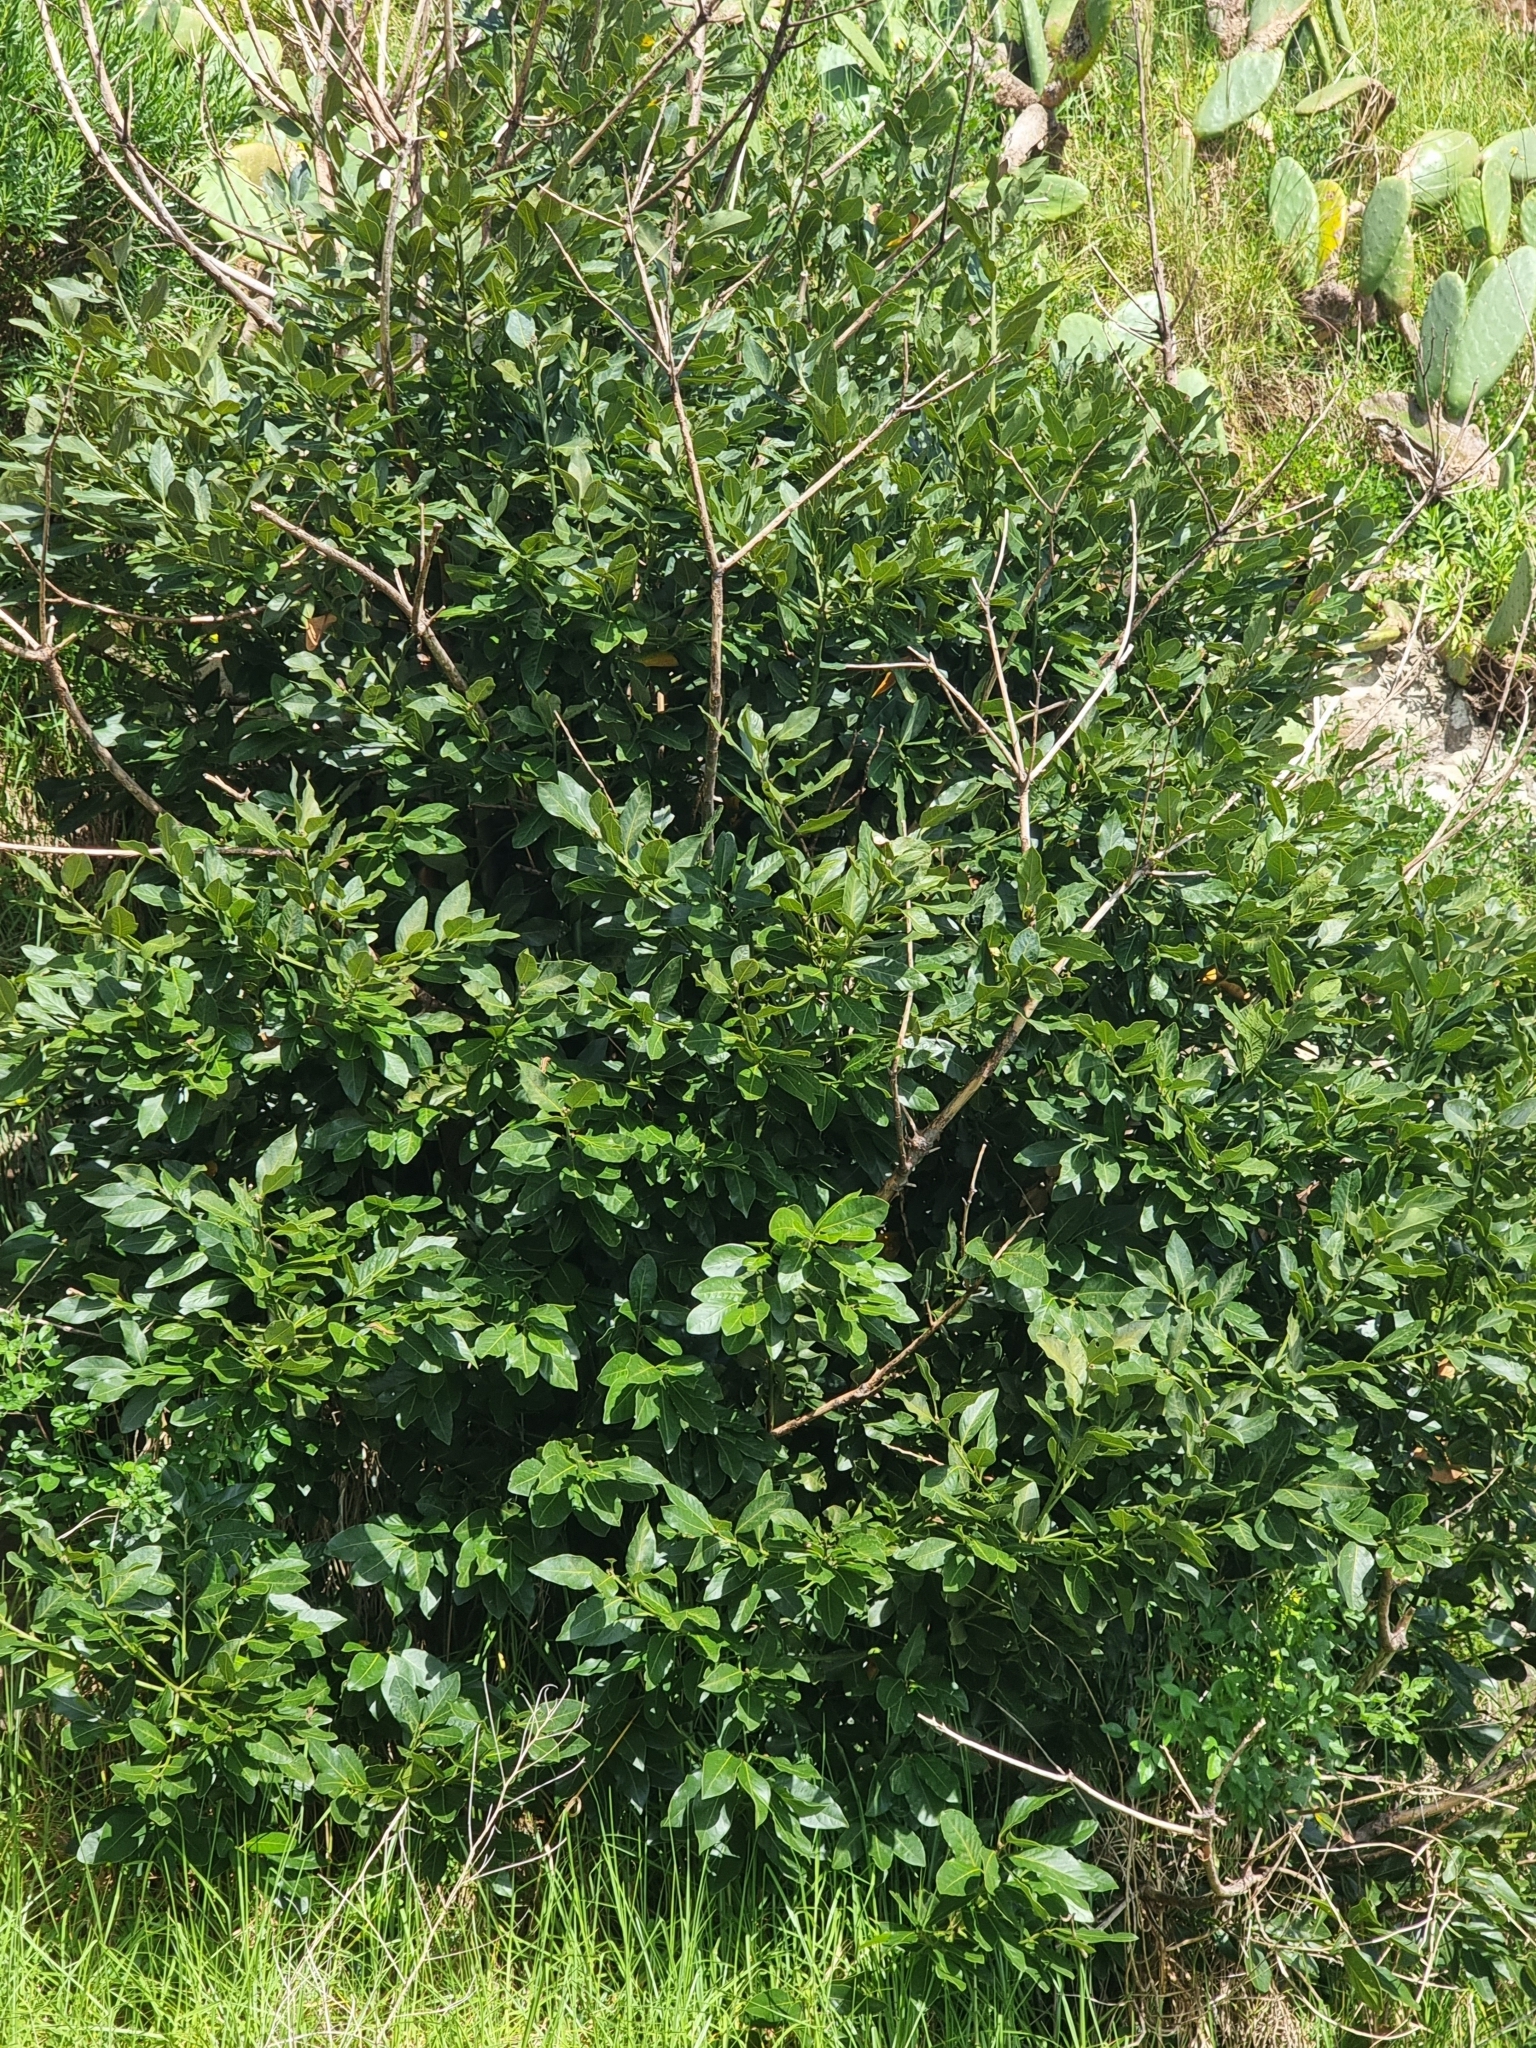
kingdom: Plantae
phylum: Tracheophyta
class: Magnoliopsida
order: Laurales
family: Lauraceae
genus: Laurus
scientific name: Laurus novocanariensis
